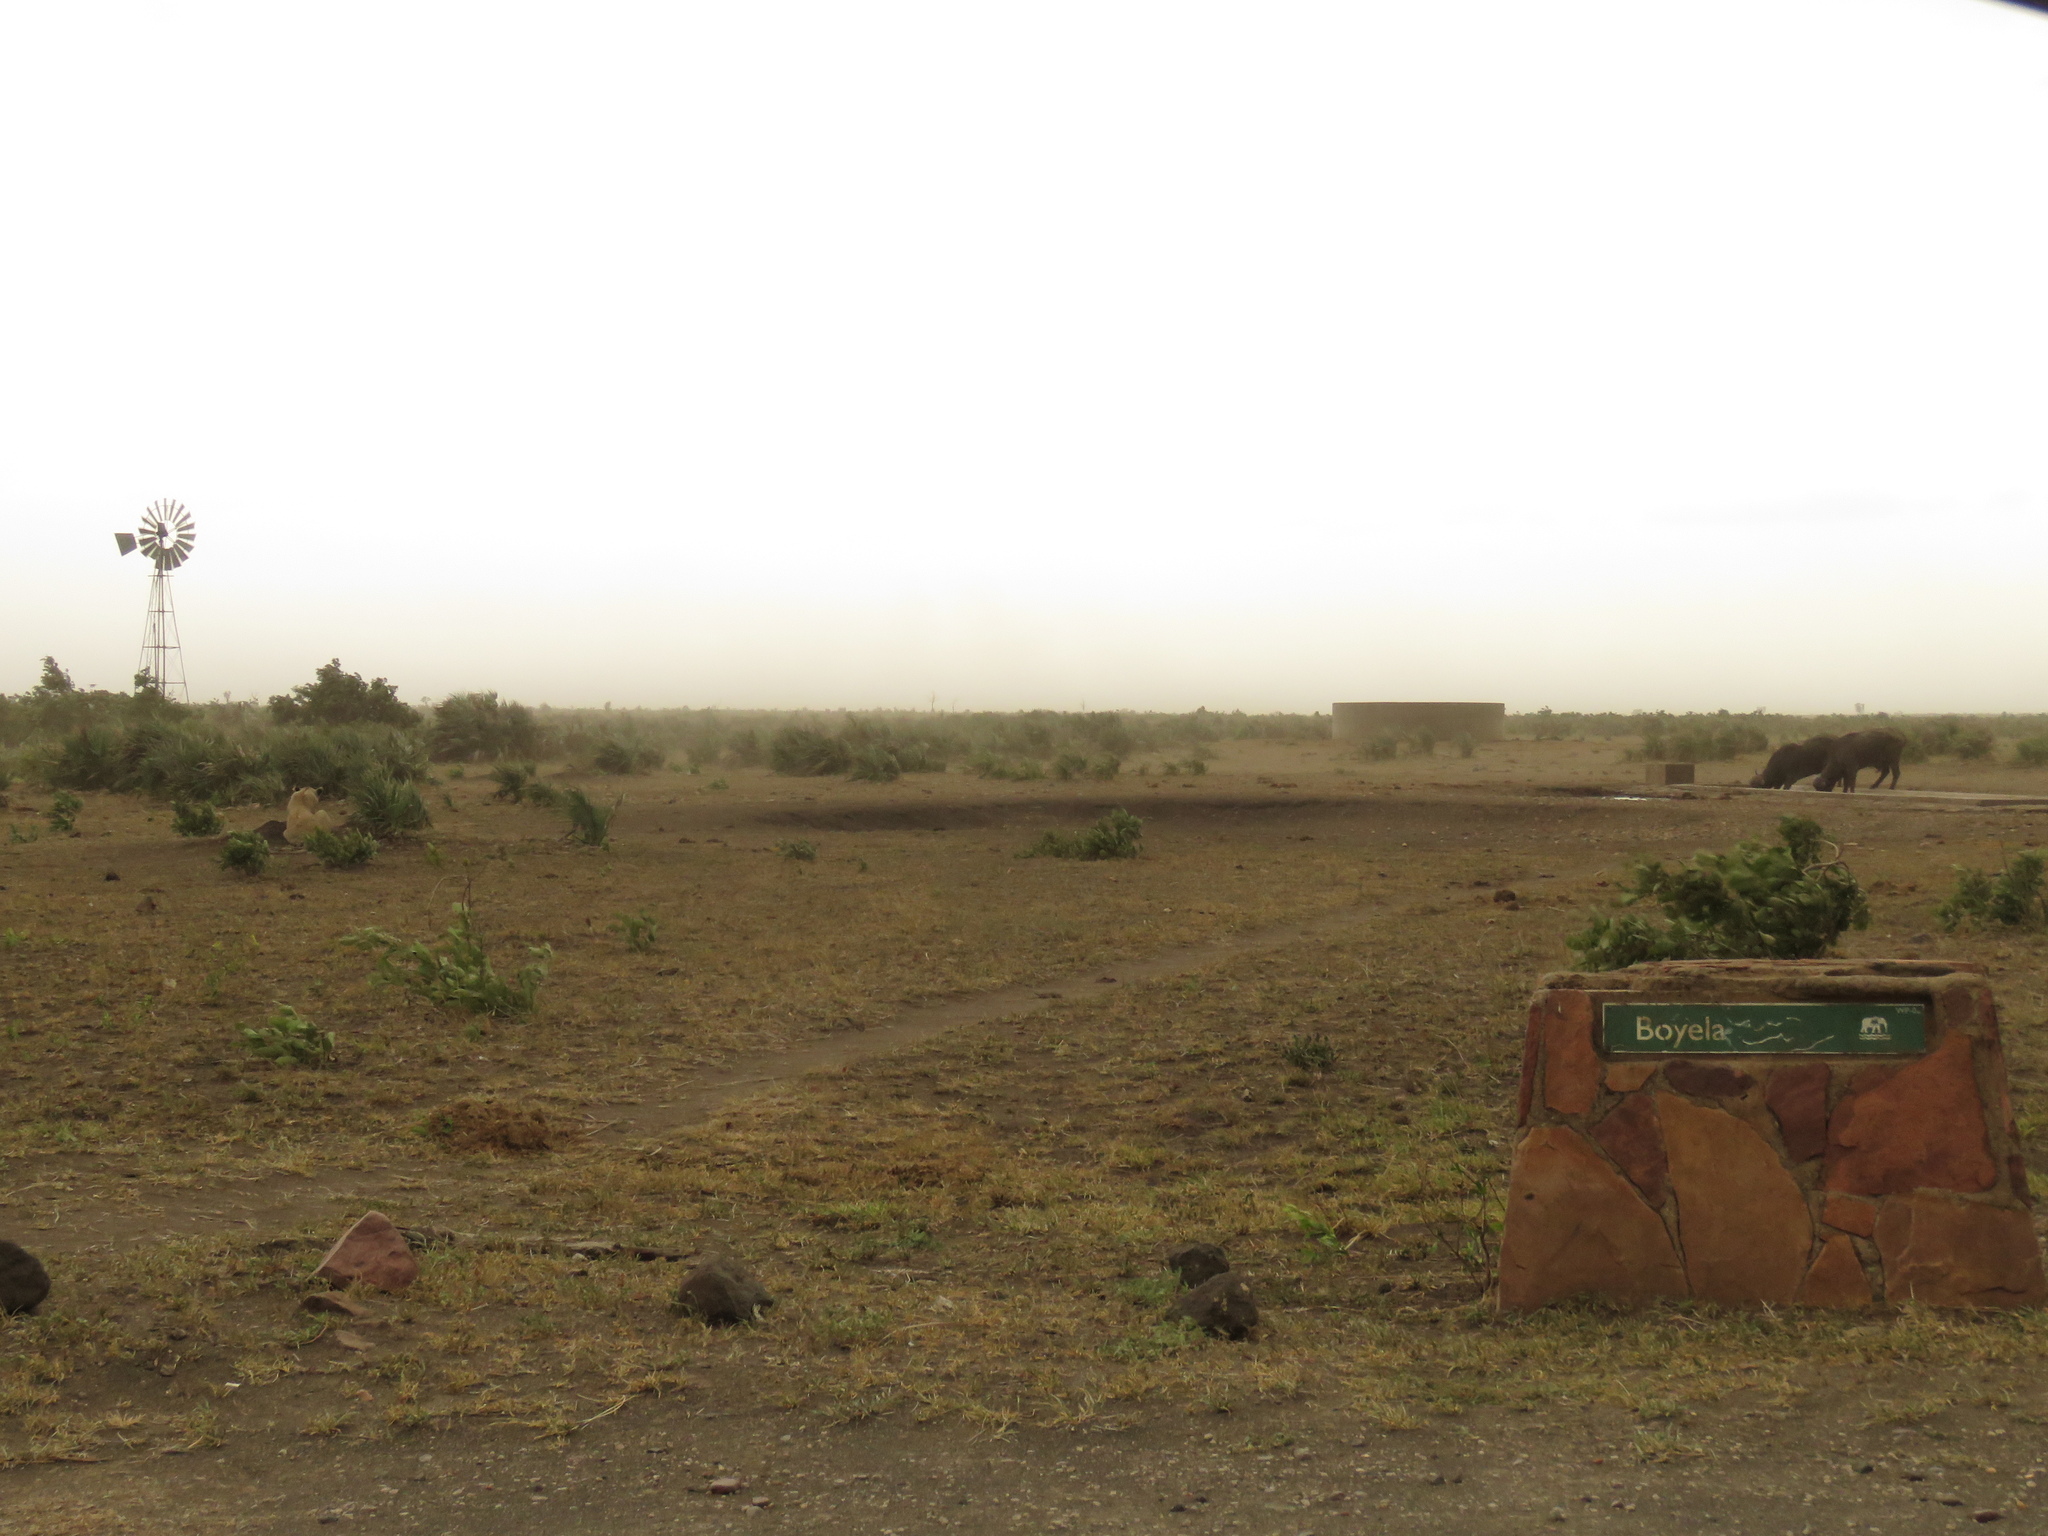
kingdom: Animalia
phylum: Chordata
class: Mammalia
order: Artiodactyla
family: Bovidae
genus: Syncerus
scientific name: Syncerus caffer
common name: African buffalo
